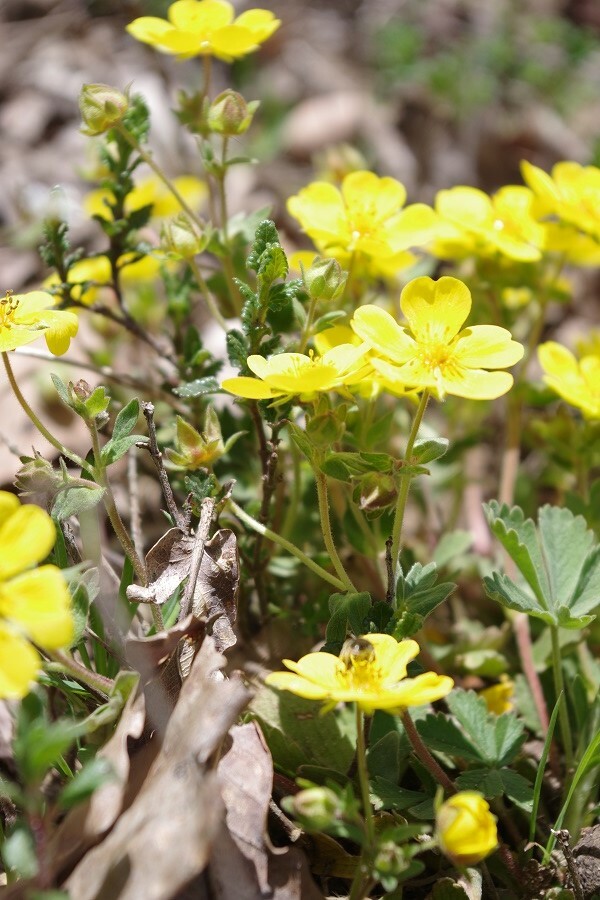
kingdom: Plantae
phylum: Tracheophyta
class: Magnoliopsida
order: Rosales
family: Rosaceae
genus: Potentilla
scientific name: Potentilla incana
